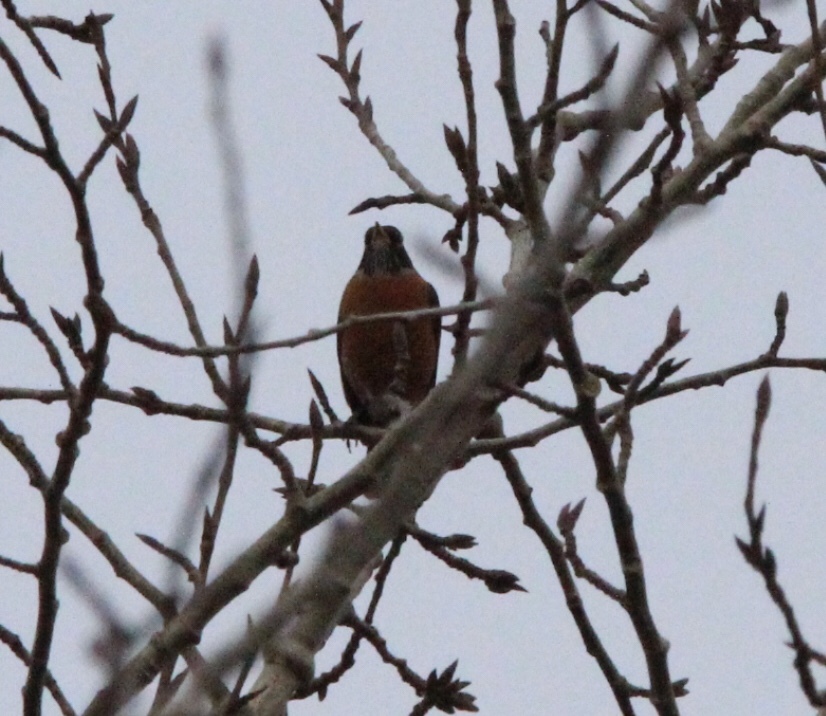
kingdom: Animalia
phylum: Chordata
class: Aves
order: Passeriformes
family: Turdidae
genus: Turdus
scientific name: Turdus migratorius
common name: American robin
